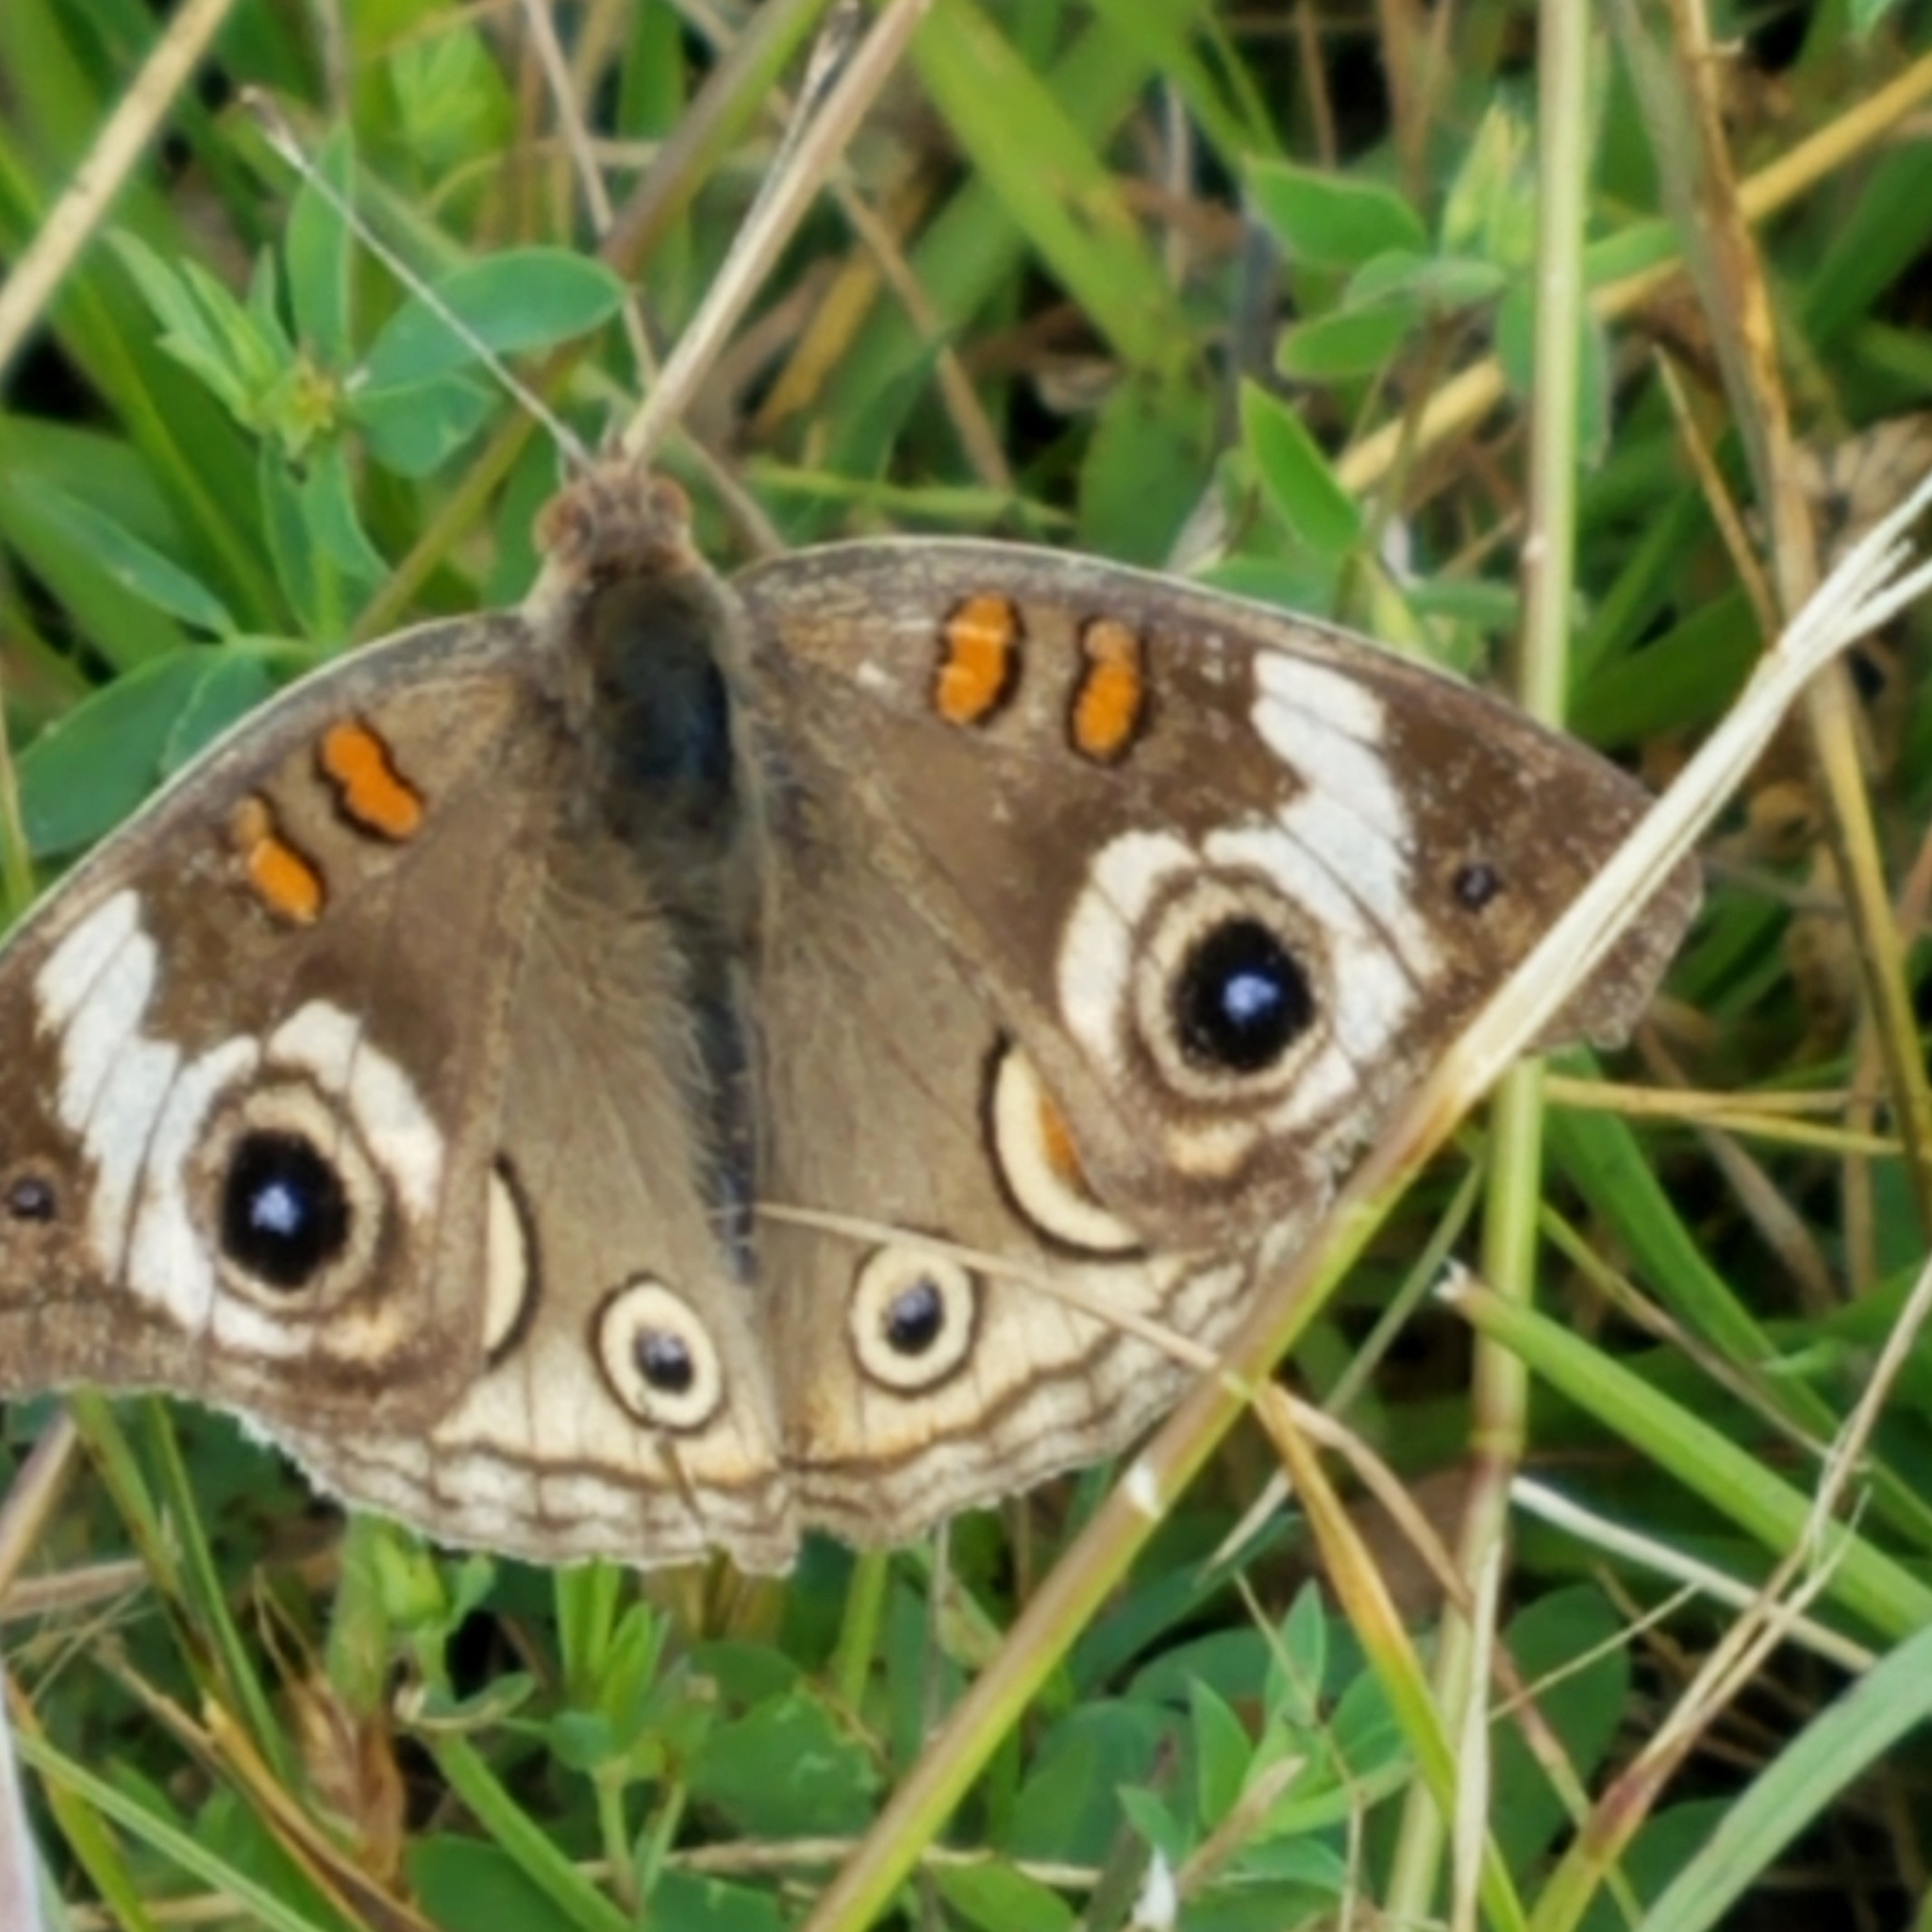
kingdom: Animalia
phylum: Arthropoda
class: Insecta
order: Lepidoptera
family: Nymphalidae
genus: Junonia
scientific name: Junonia grisea
